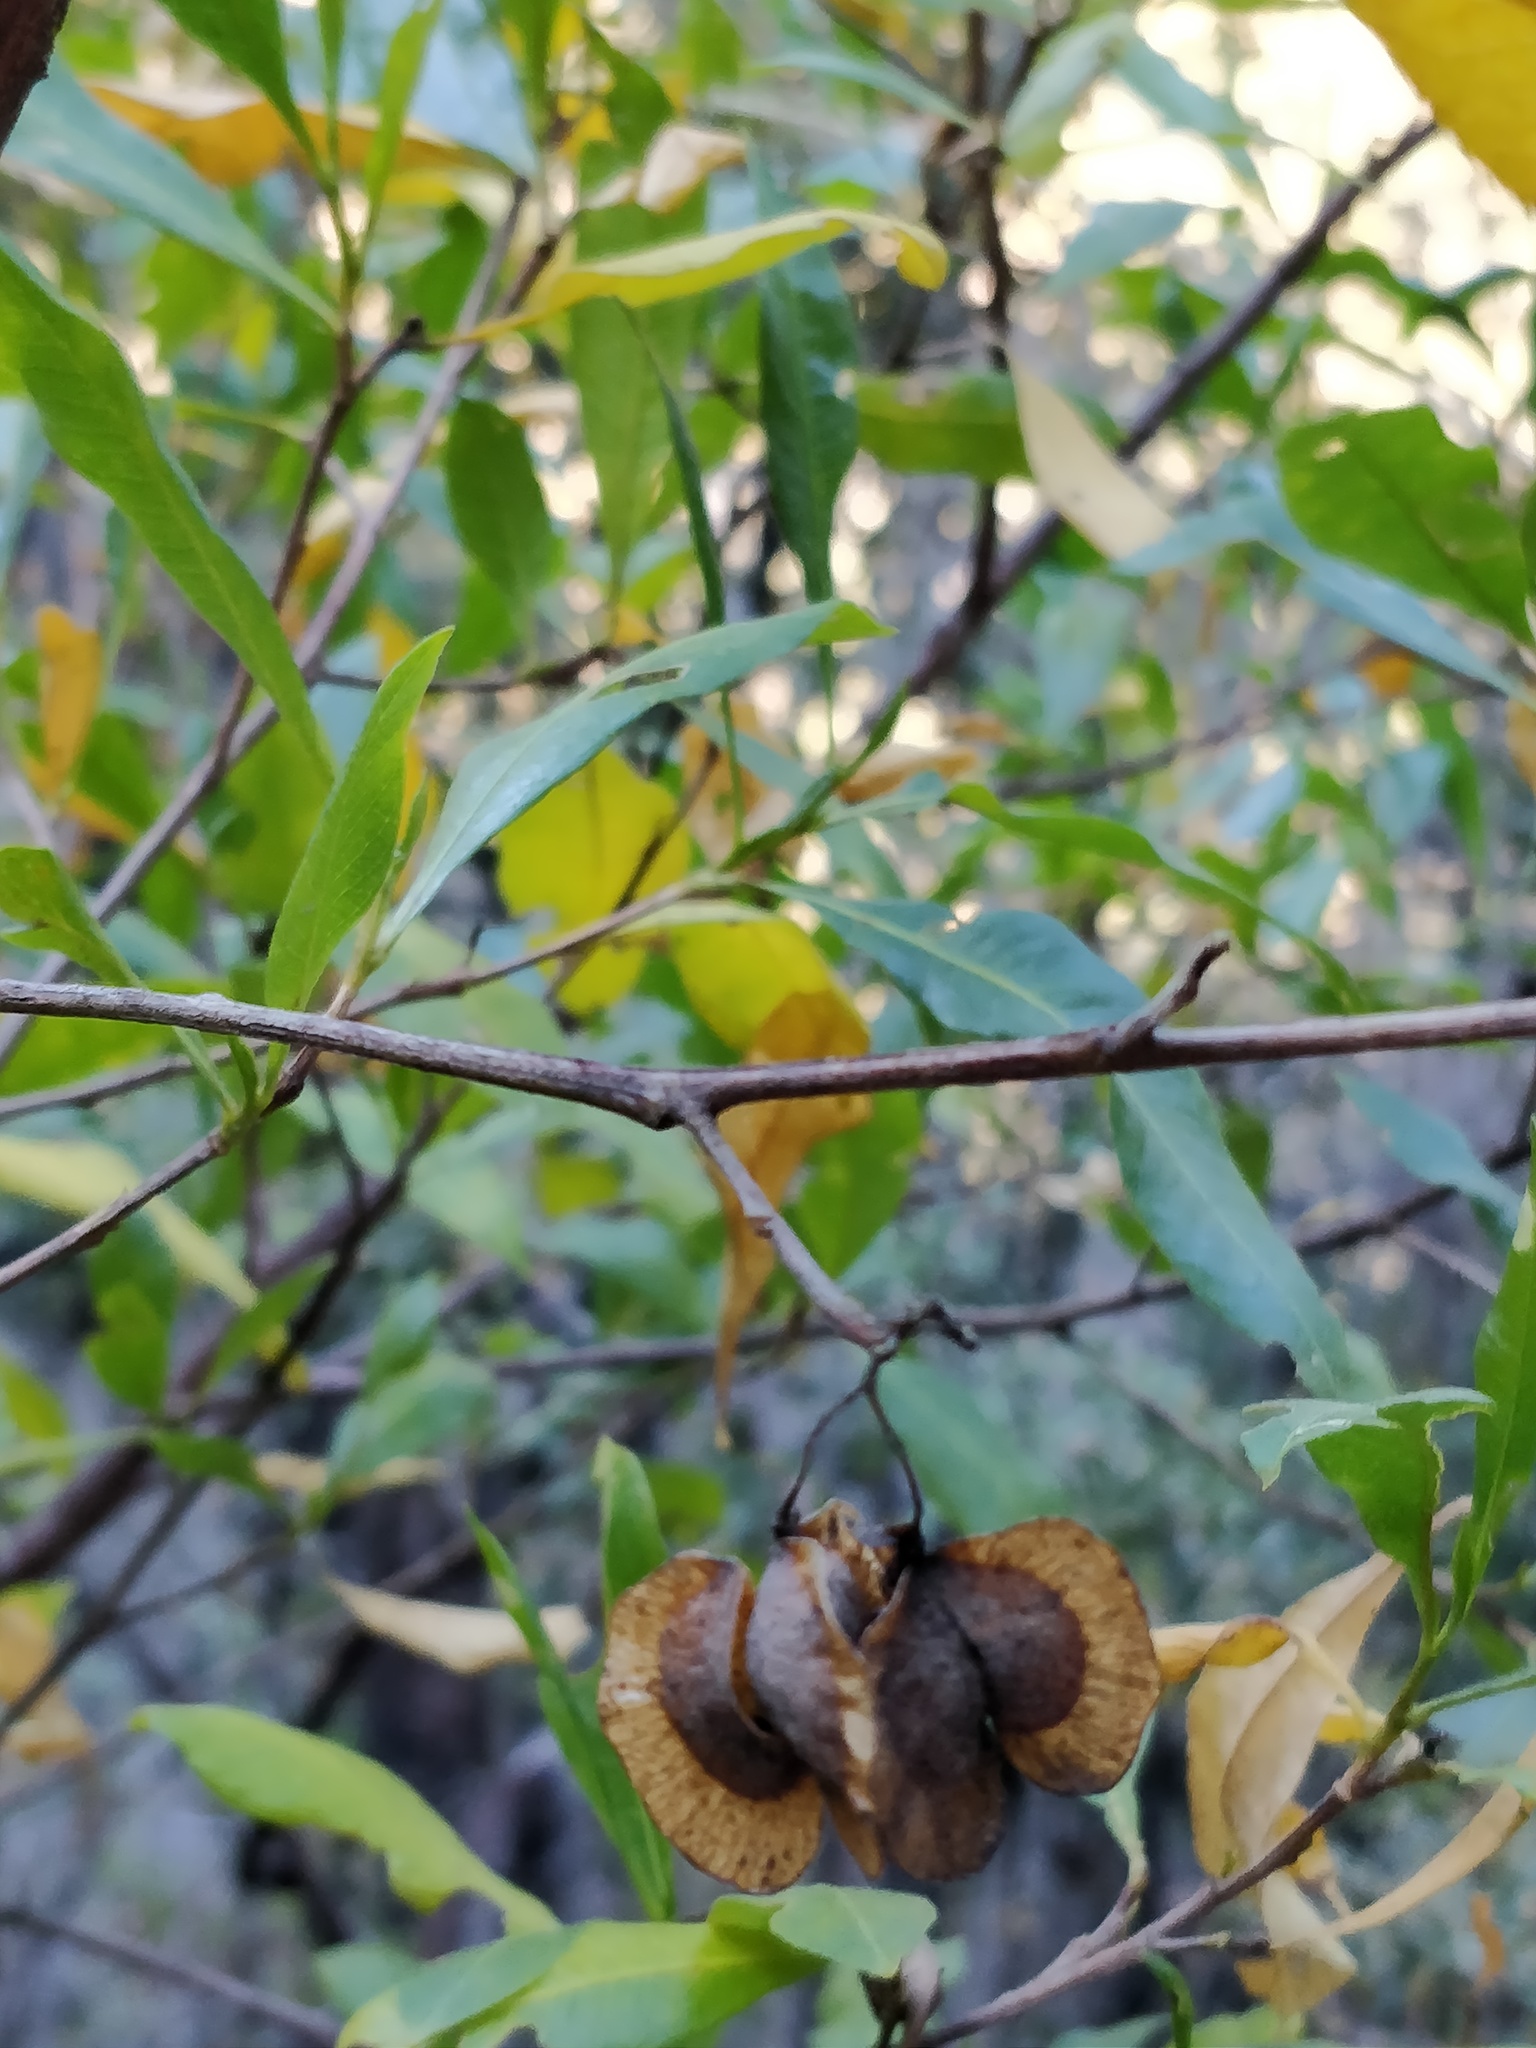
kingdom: Plantae
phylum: Tracheophyta
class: Magnoliopsida
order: Sapindales
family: Sapindaceae
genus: Dodonaea
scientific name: Dodonaea viscosa
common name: Hopbush
